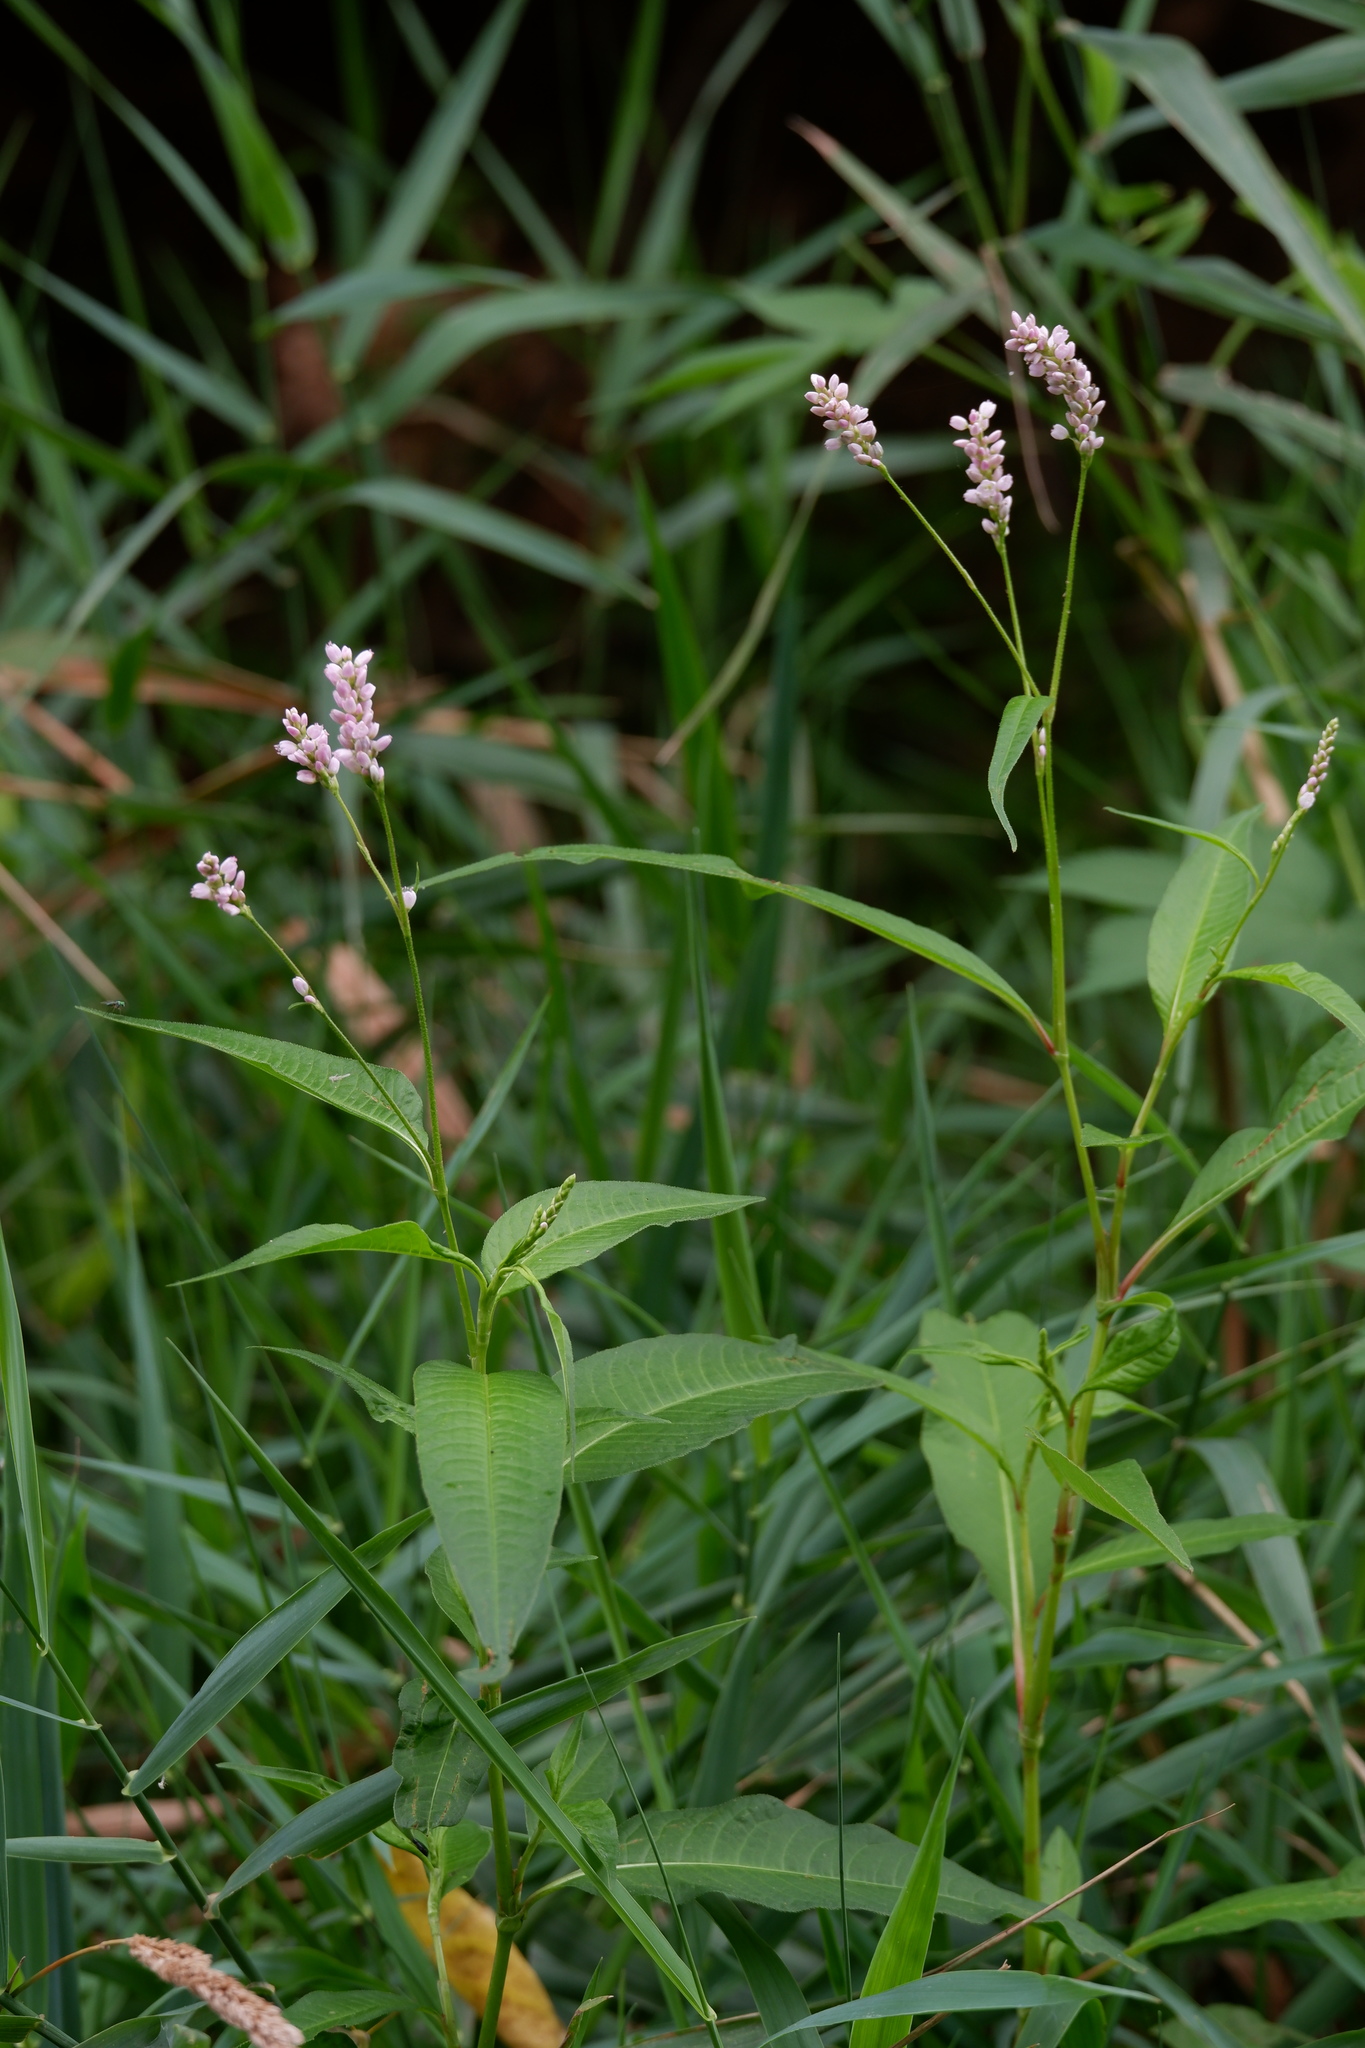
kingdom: Plantae
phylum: Tracheophyta
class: Magnoliopsida
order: Caryophyllales
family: Polygonaceae
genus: Persicaria
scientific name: Persicaria pensylvanica
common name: Pinkweed
